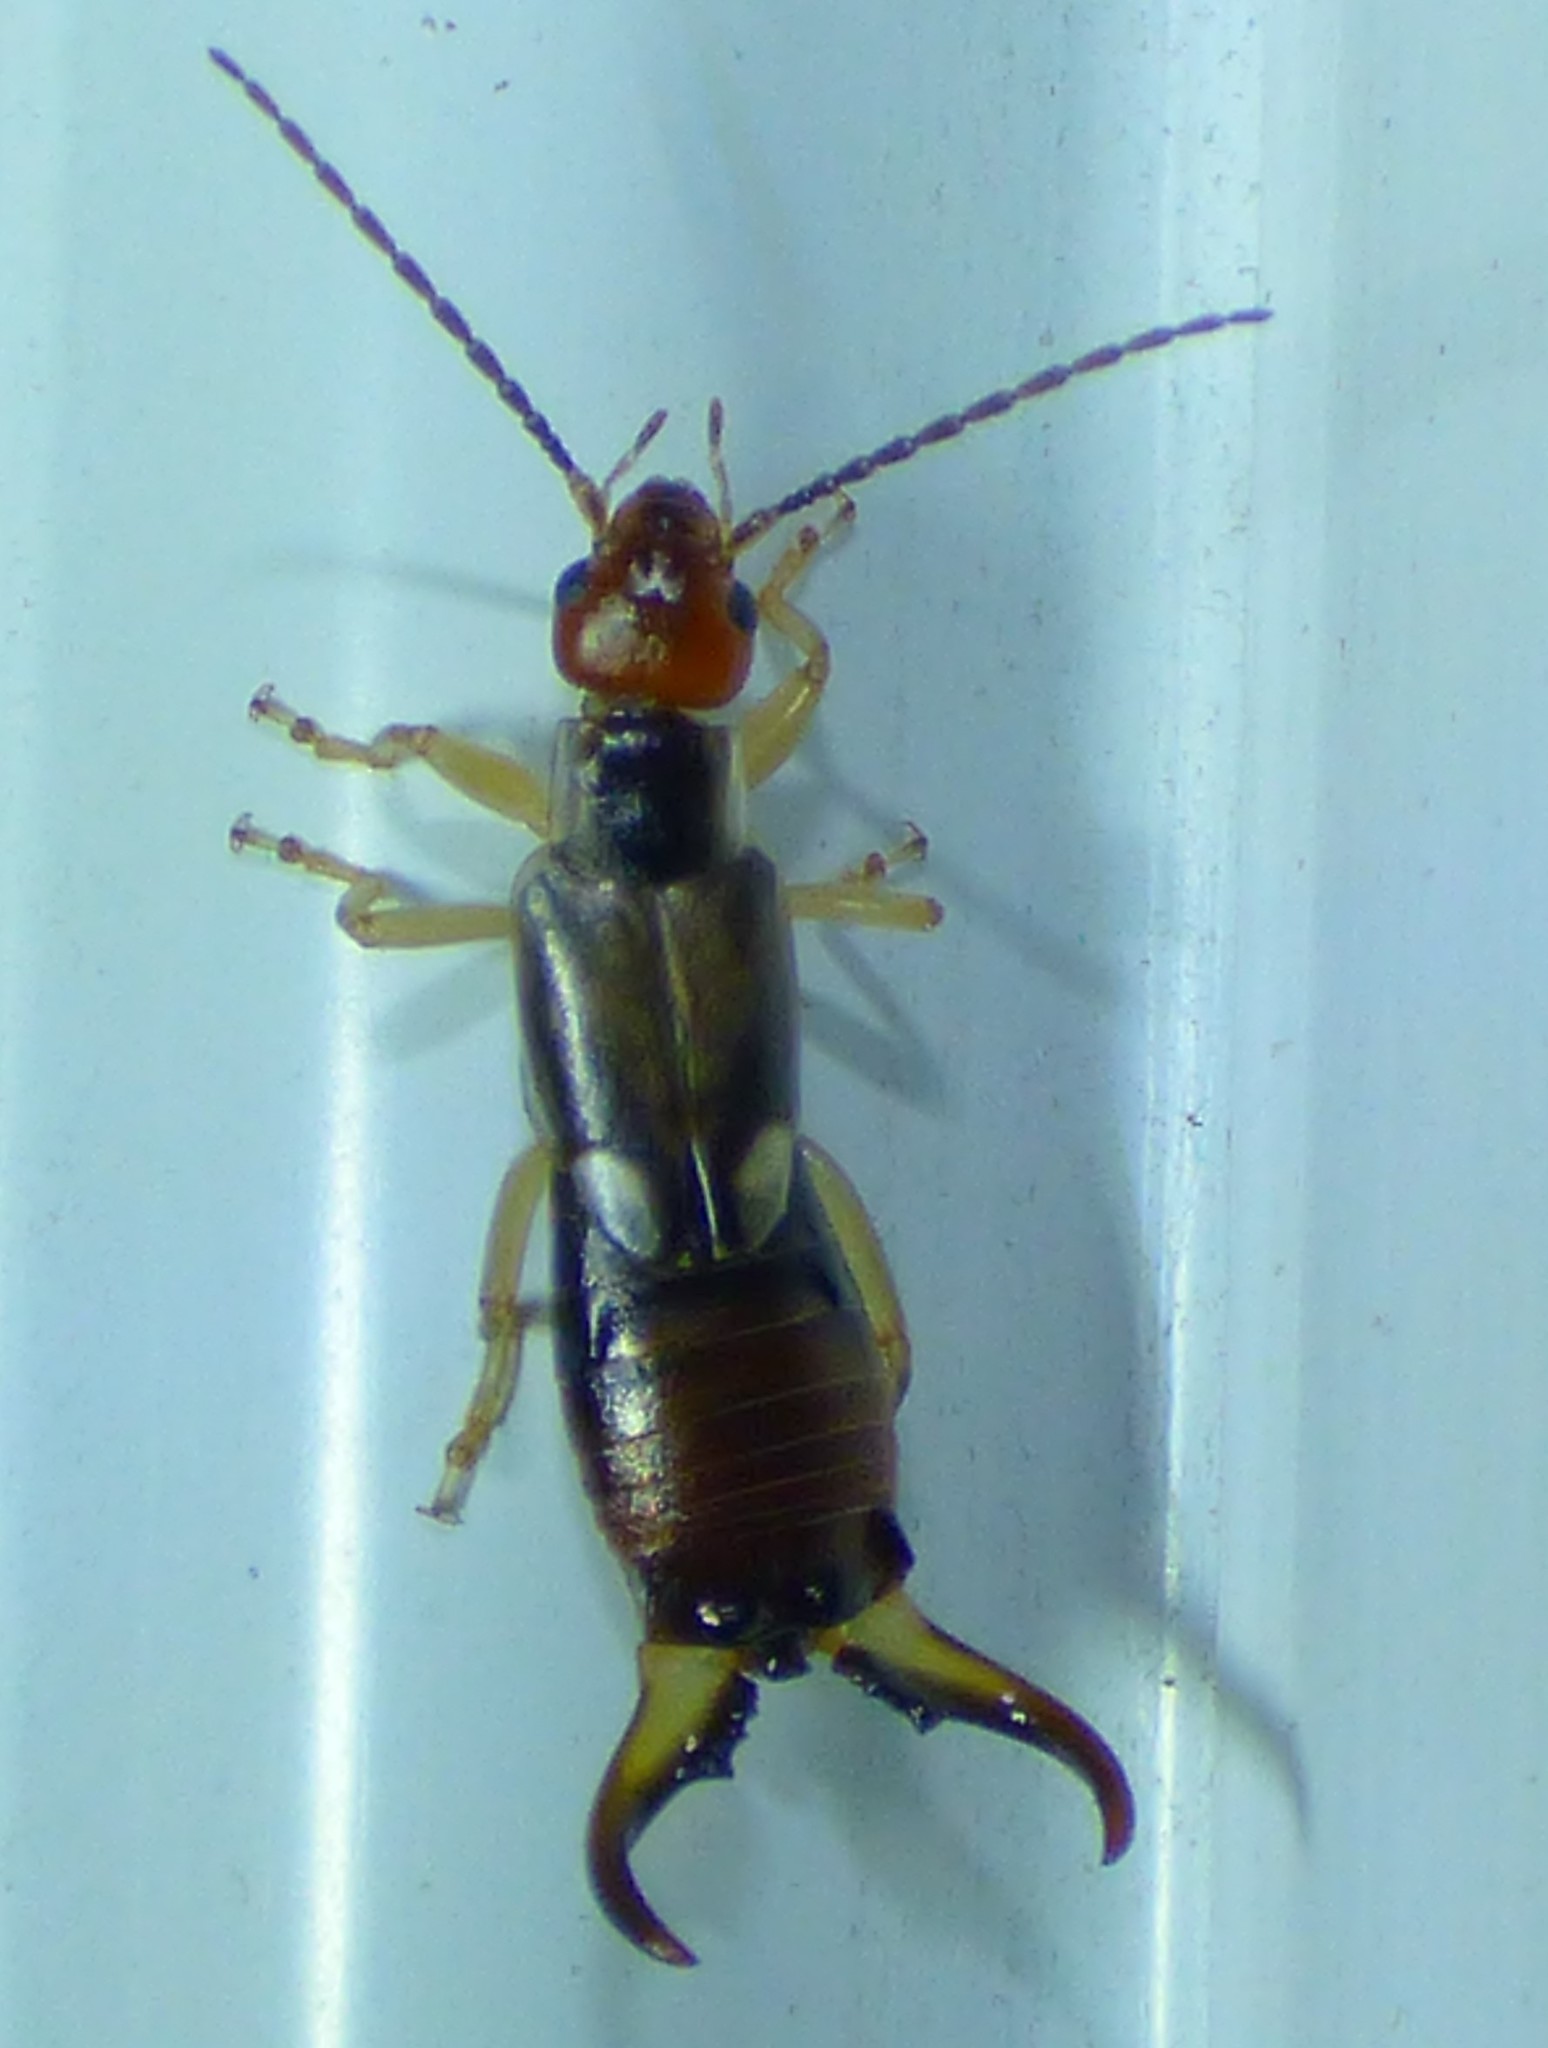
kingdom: Animalia
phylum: Arthropoda
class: Insecta
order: Dermaptera
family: Forficulidae
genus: Forficula
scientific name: Forficula
